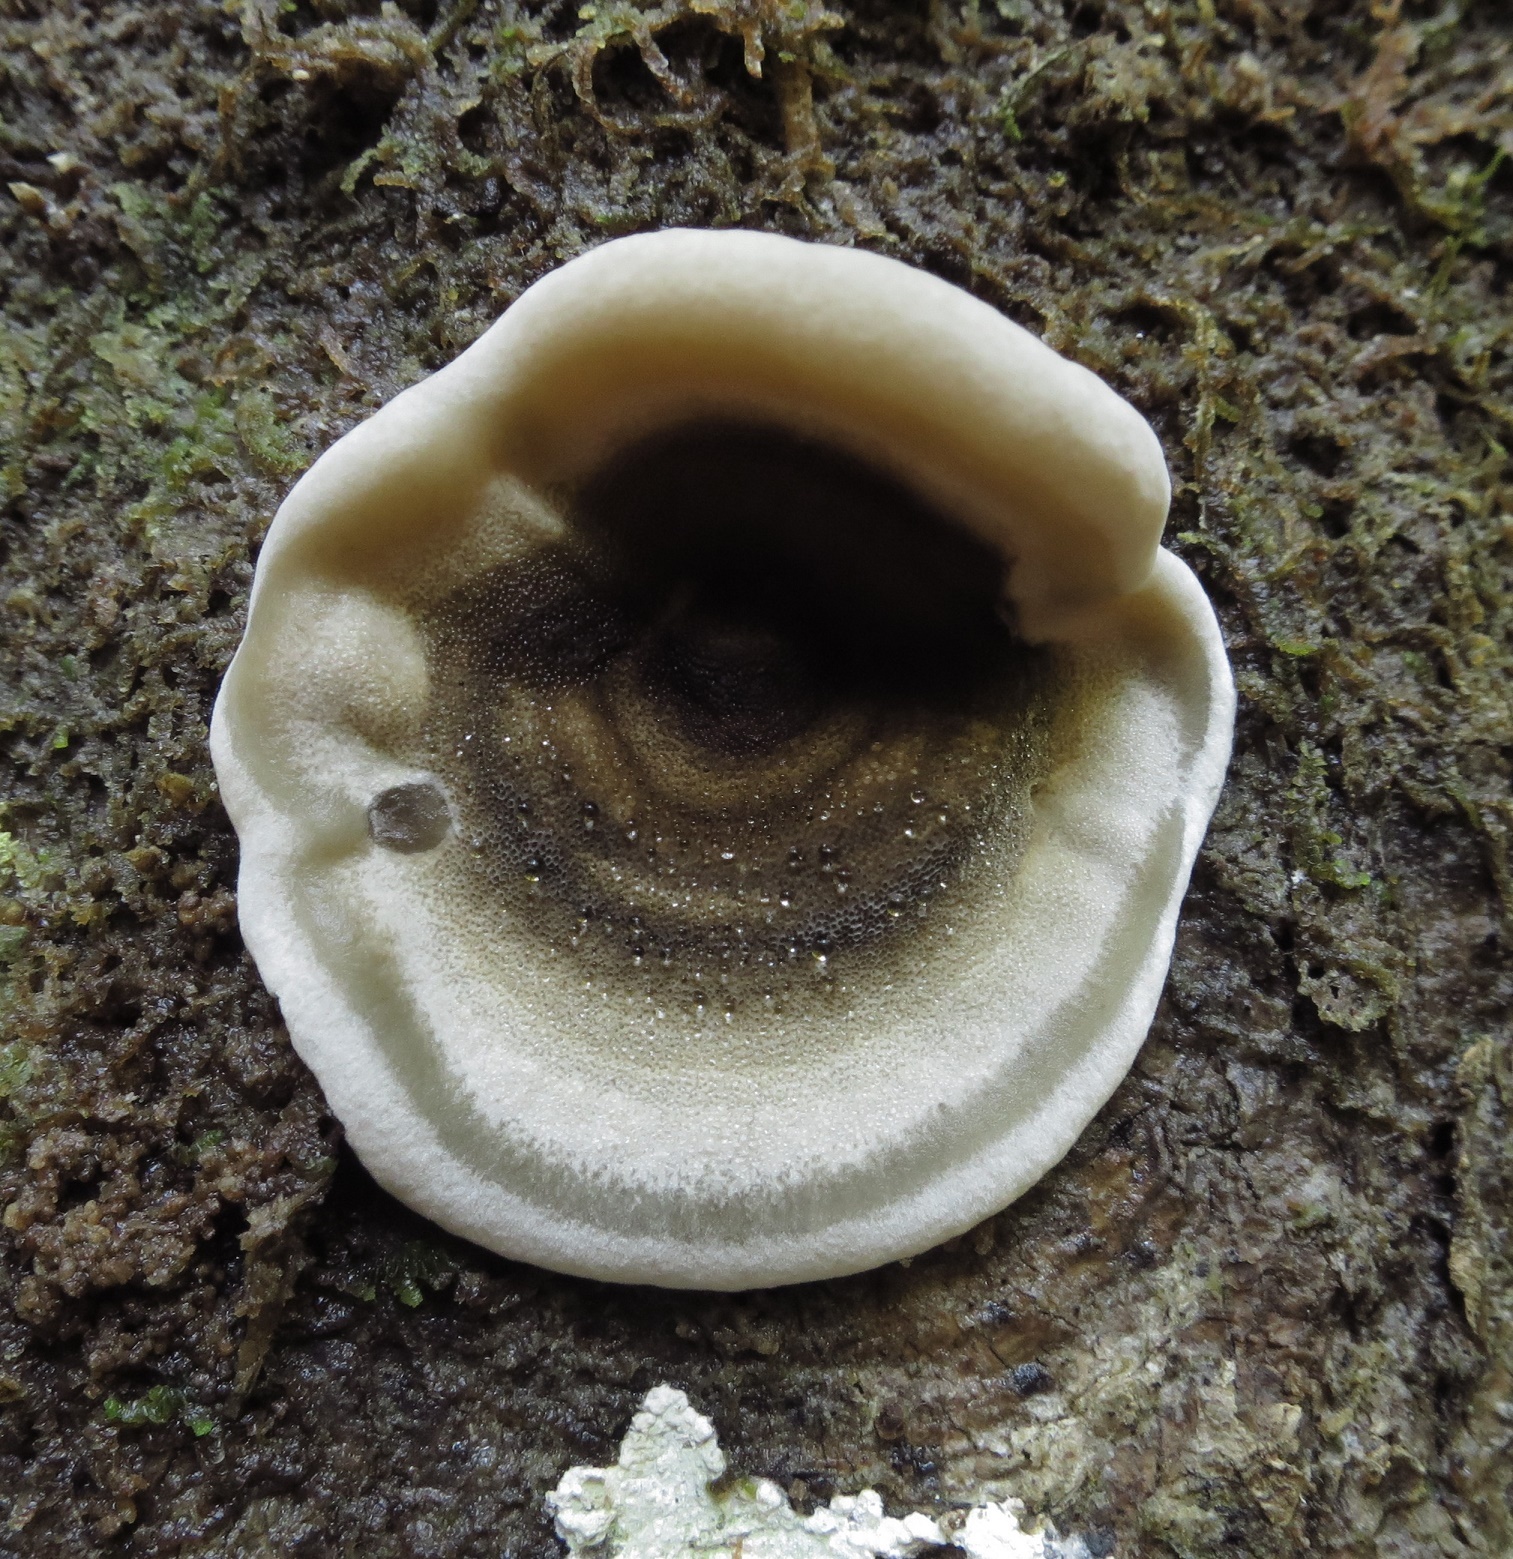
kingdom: Fungi
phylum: Basidiomycota
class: Agaricomycetes
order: Polyporales
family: Phanerochaetaceae
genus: Bjerkandera
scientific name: Bjerkandera adusta
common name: Smoky bracket
